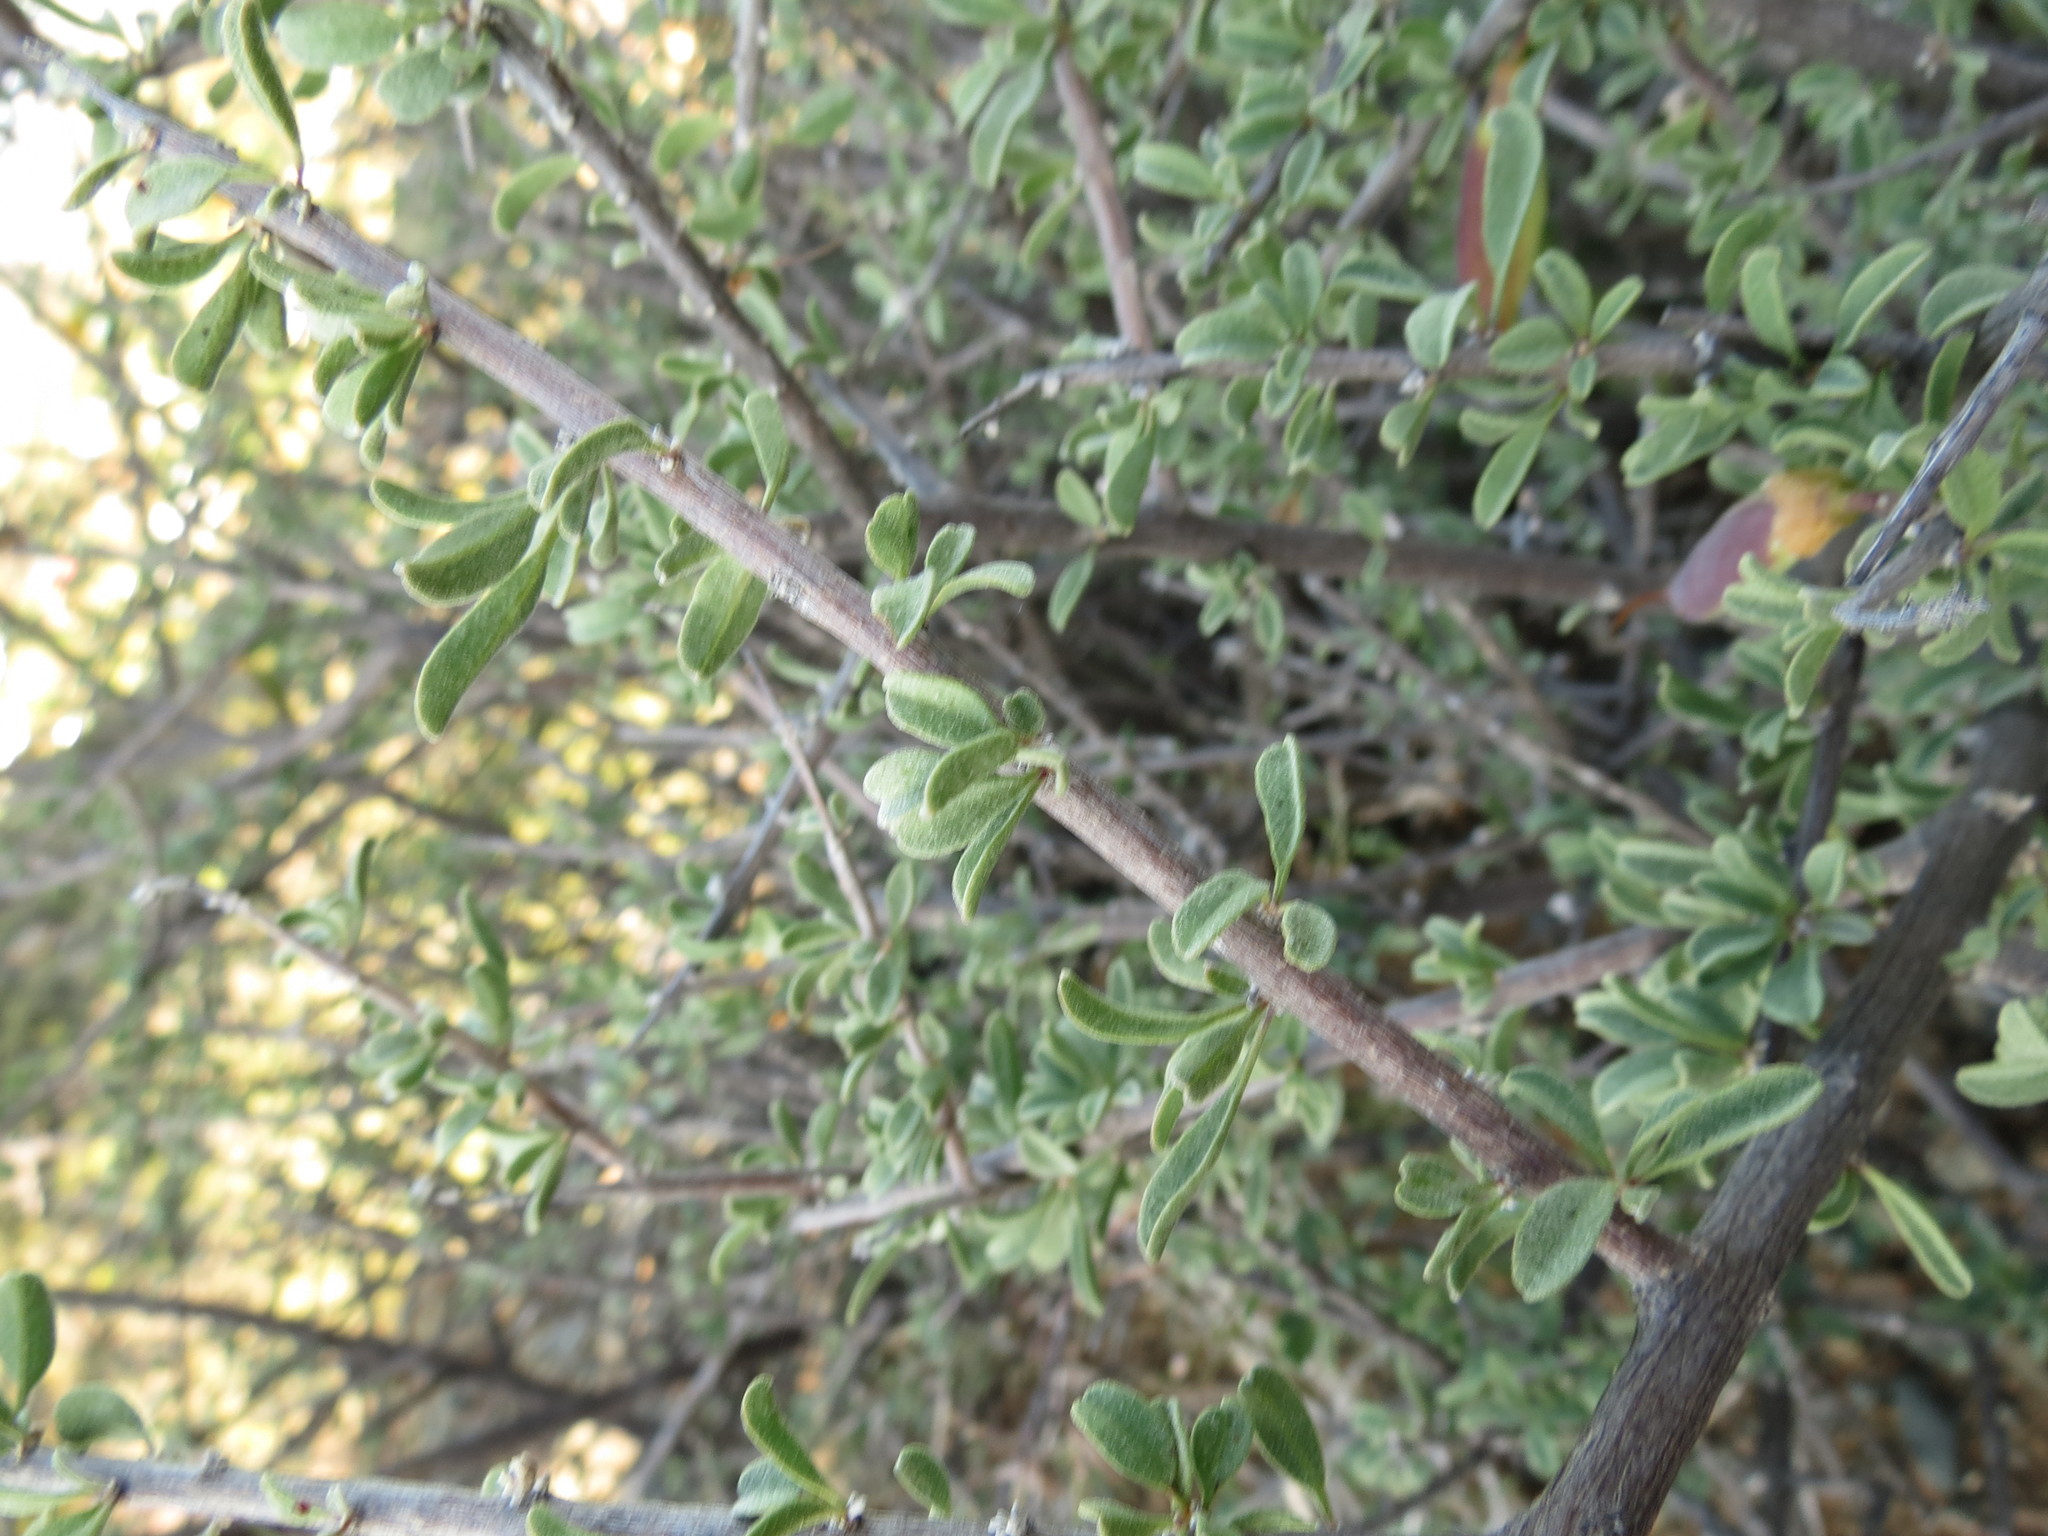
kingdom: Plantae
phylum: Tracheophyta
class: Magnoliopsida
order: Lamiales
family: Bignoniaceae
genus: Rhigozum
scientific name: Rhigozum obovatum
